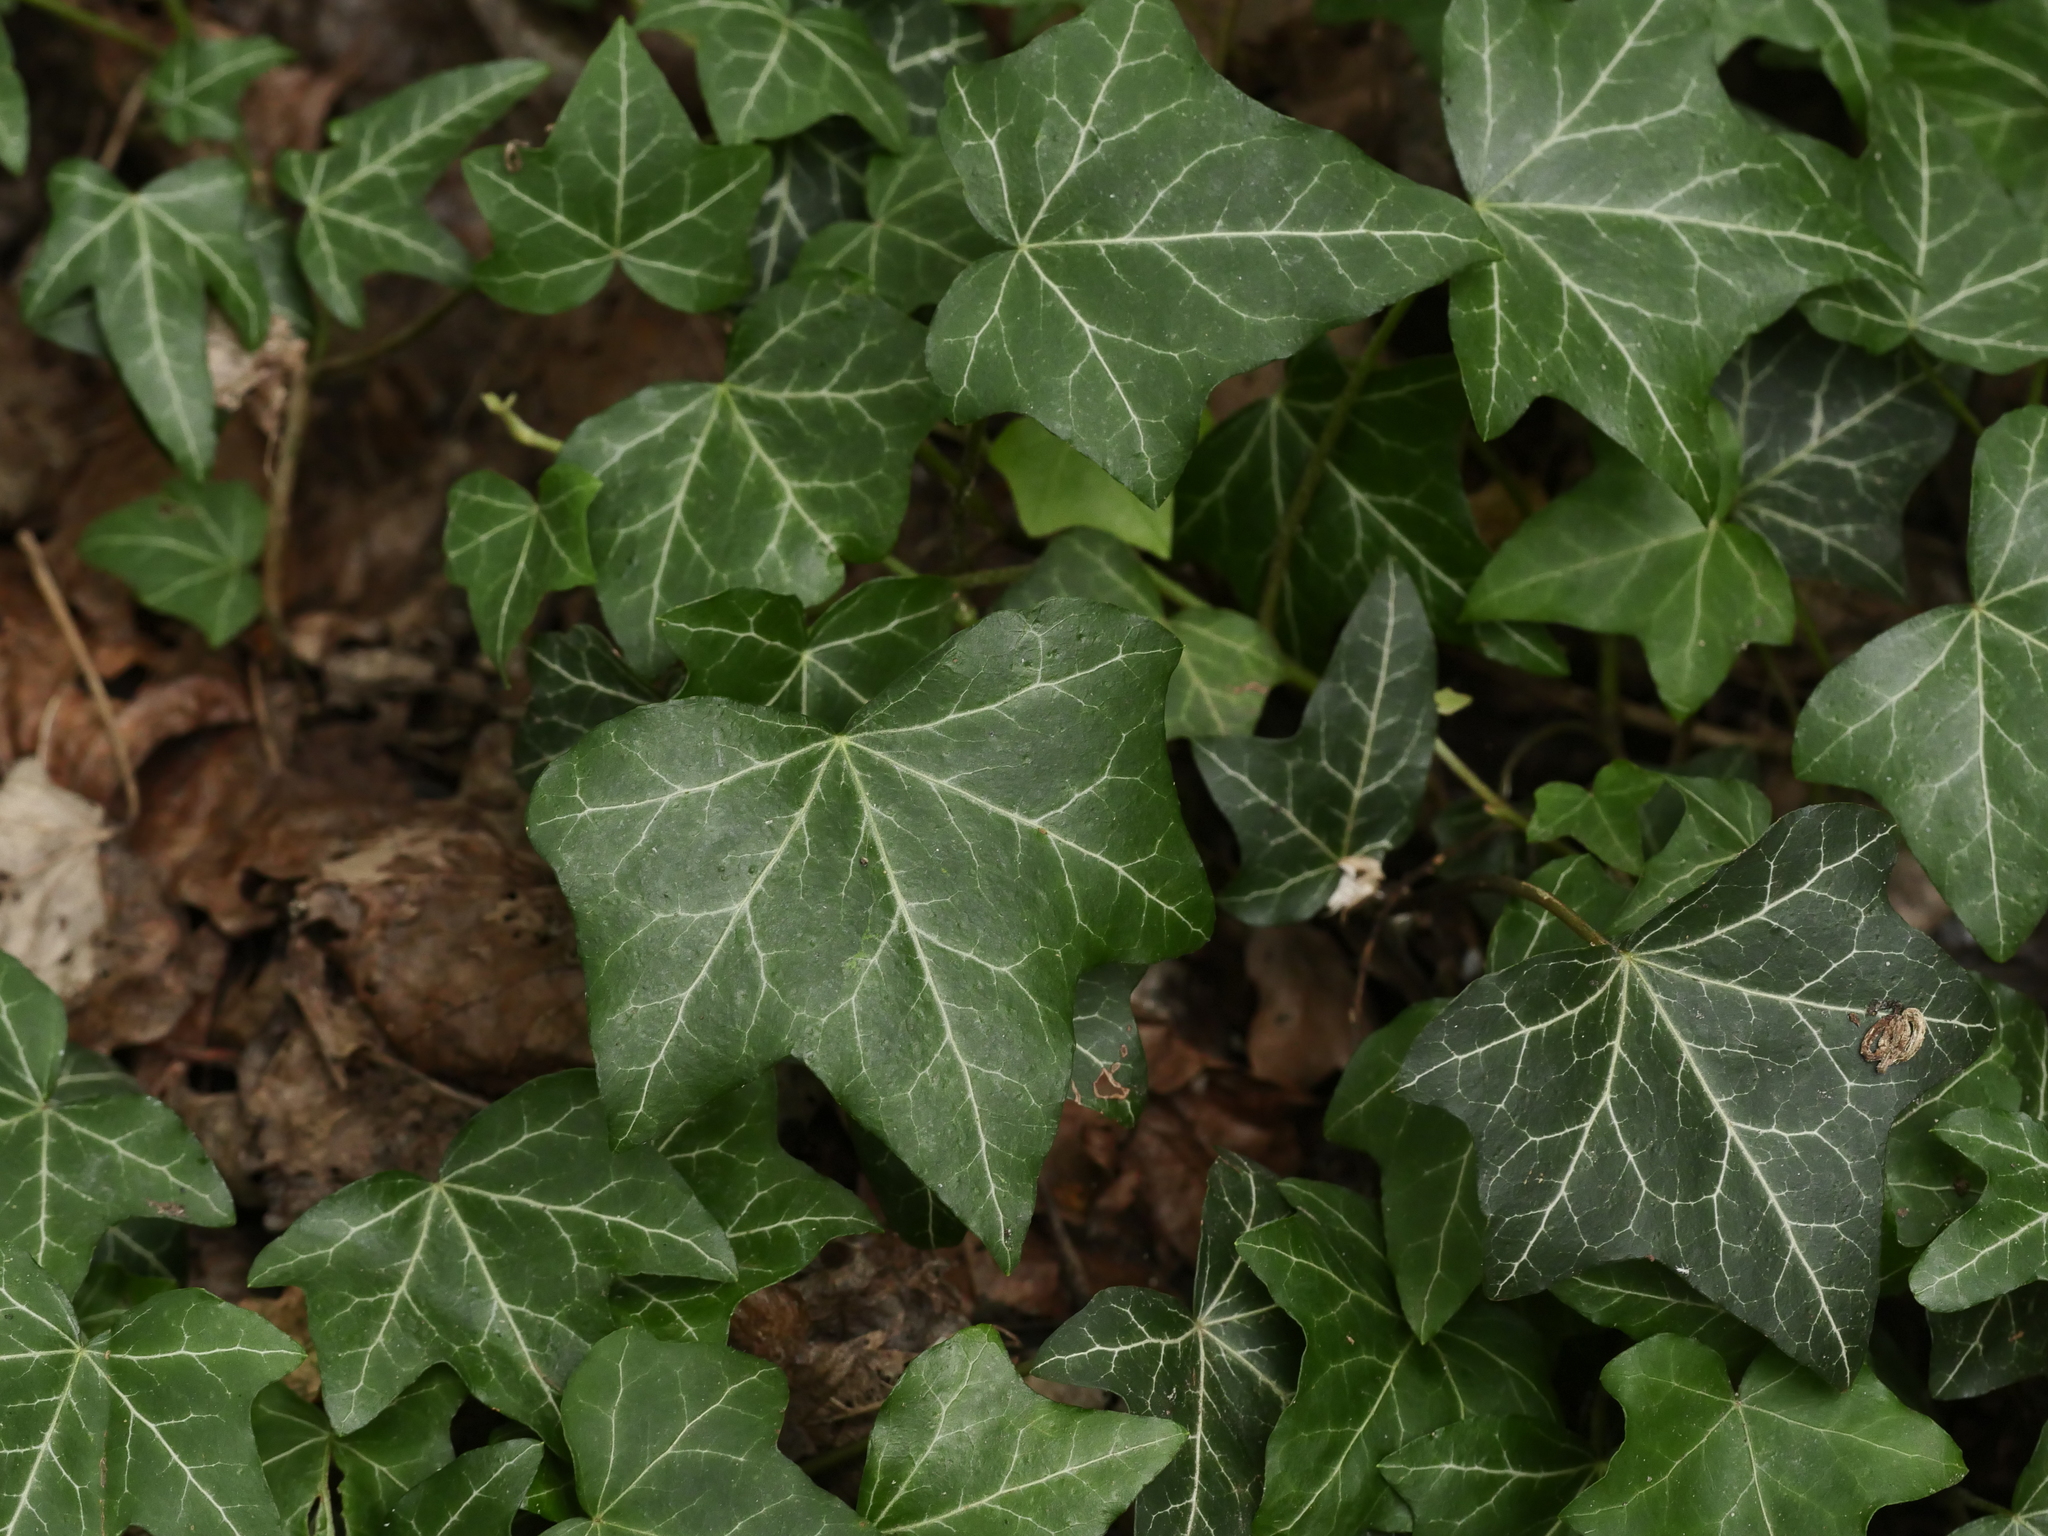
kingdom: Plantae
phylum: Tracheophyta
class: Magnoliopsida
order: Apiales
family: Araliaceae
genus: Hedera
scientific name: Hedera helix
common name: Ivy
